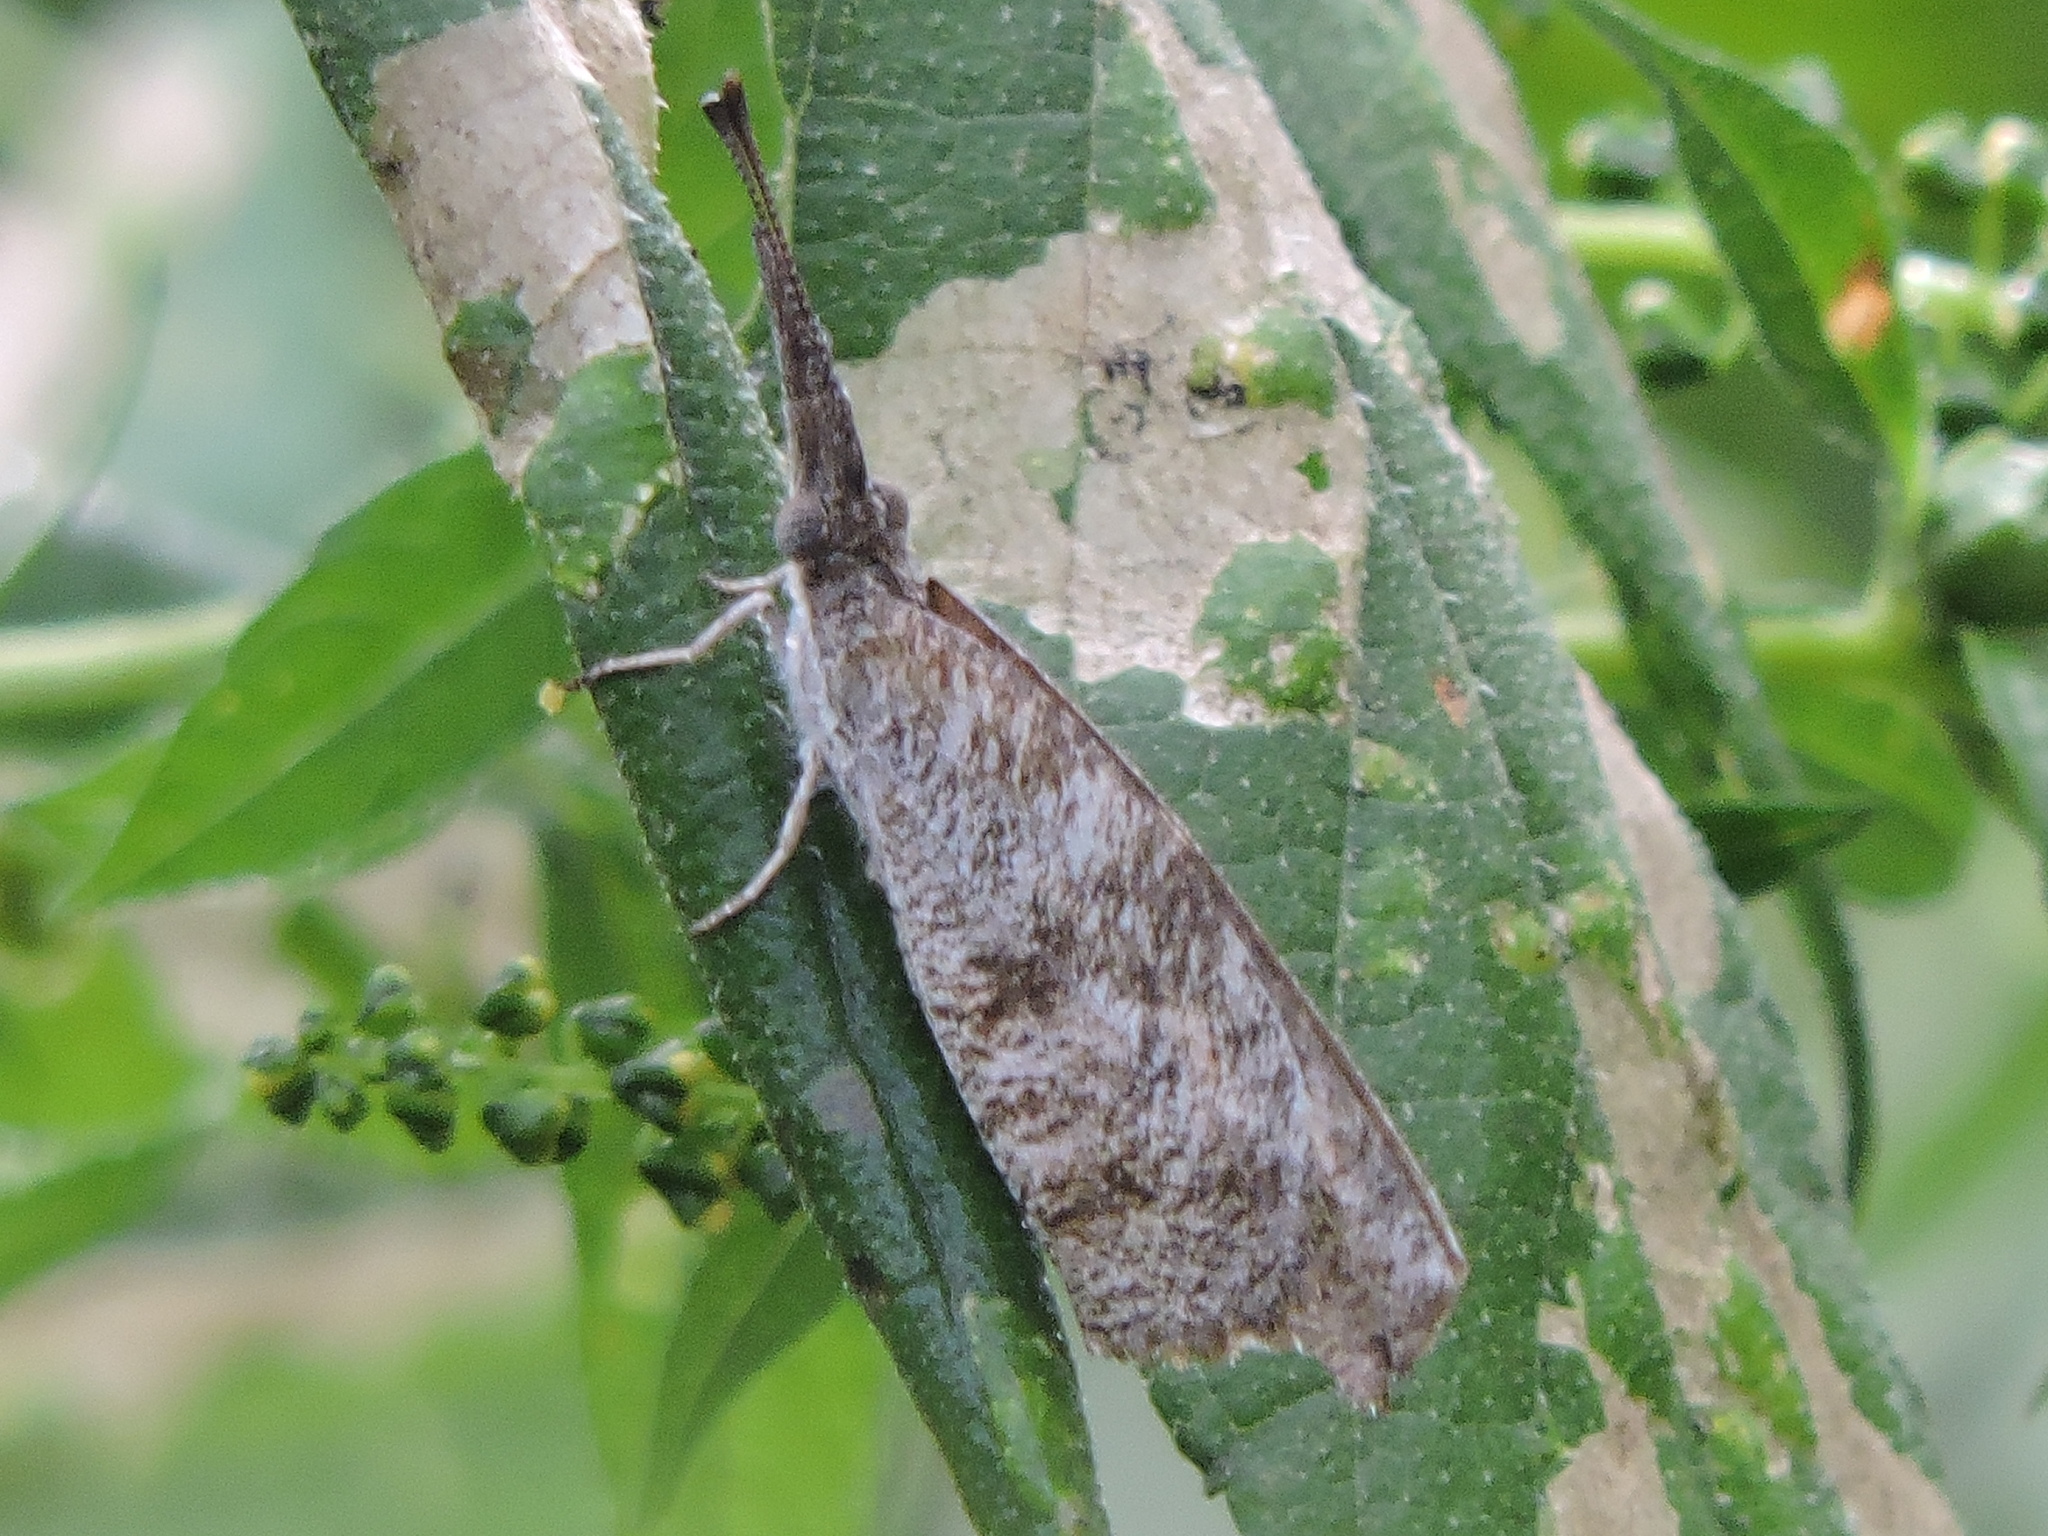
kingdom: Animalia
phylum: Arthropoda
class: Insecta
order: Lepidoptera
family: Nymphalidae
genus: Libytheana
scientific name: Libytheana carinenta
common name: American snout
